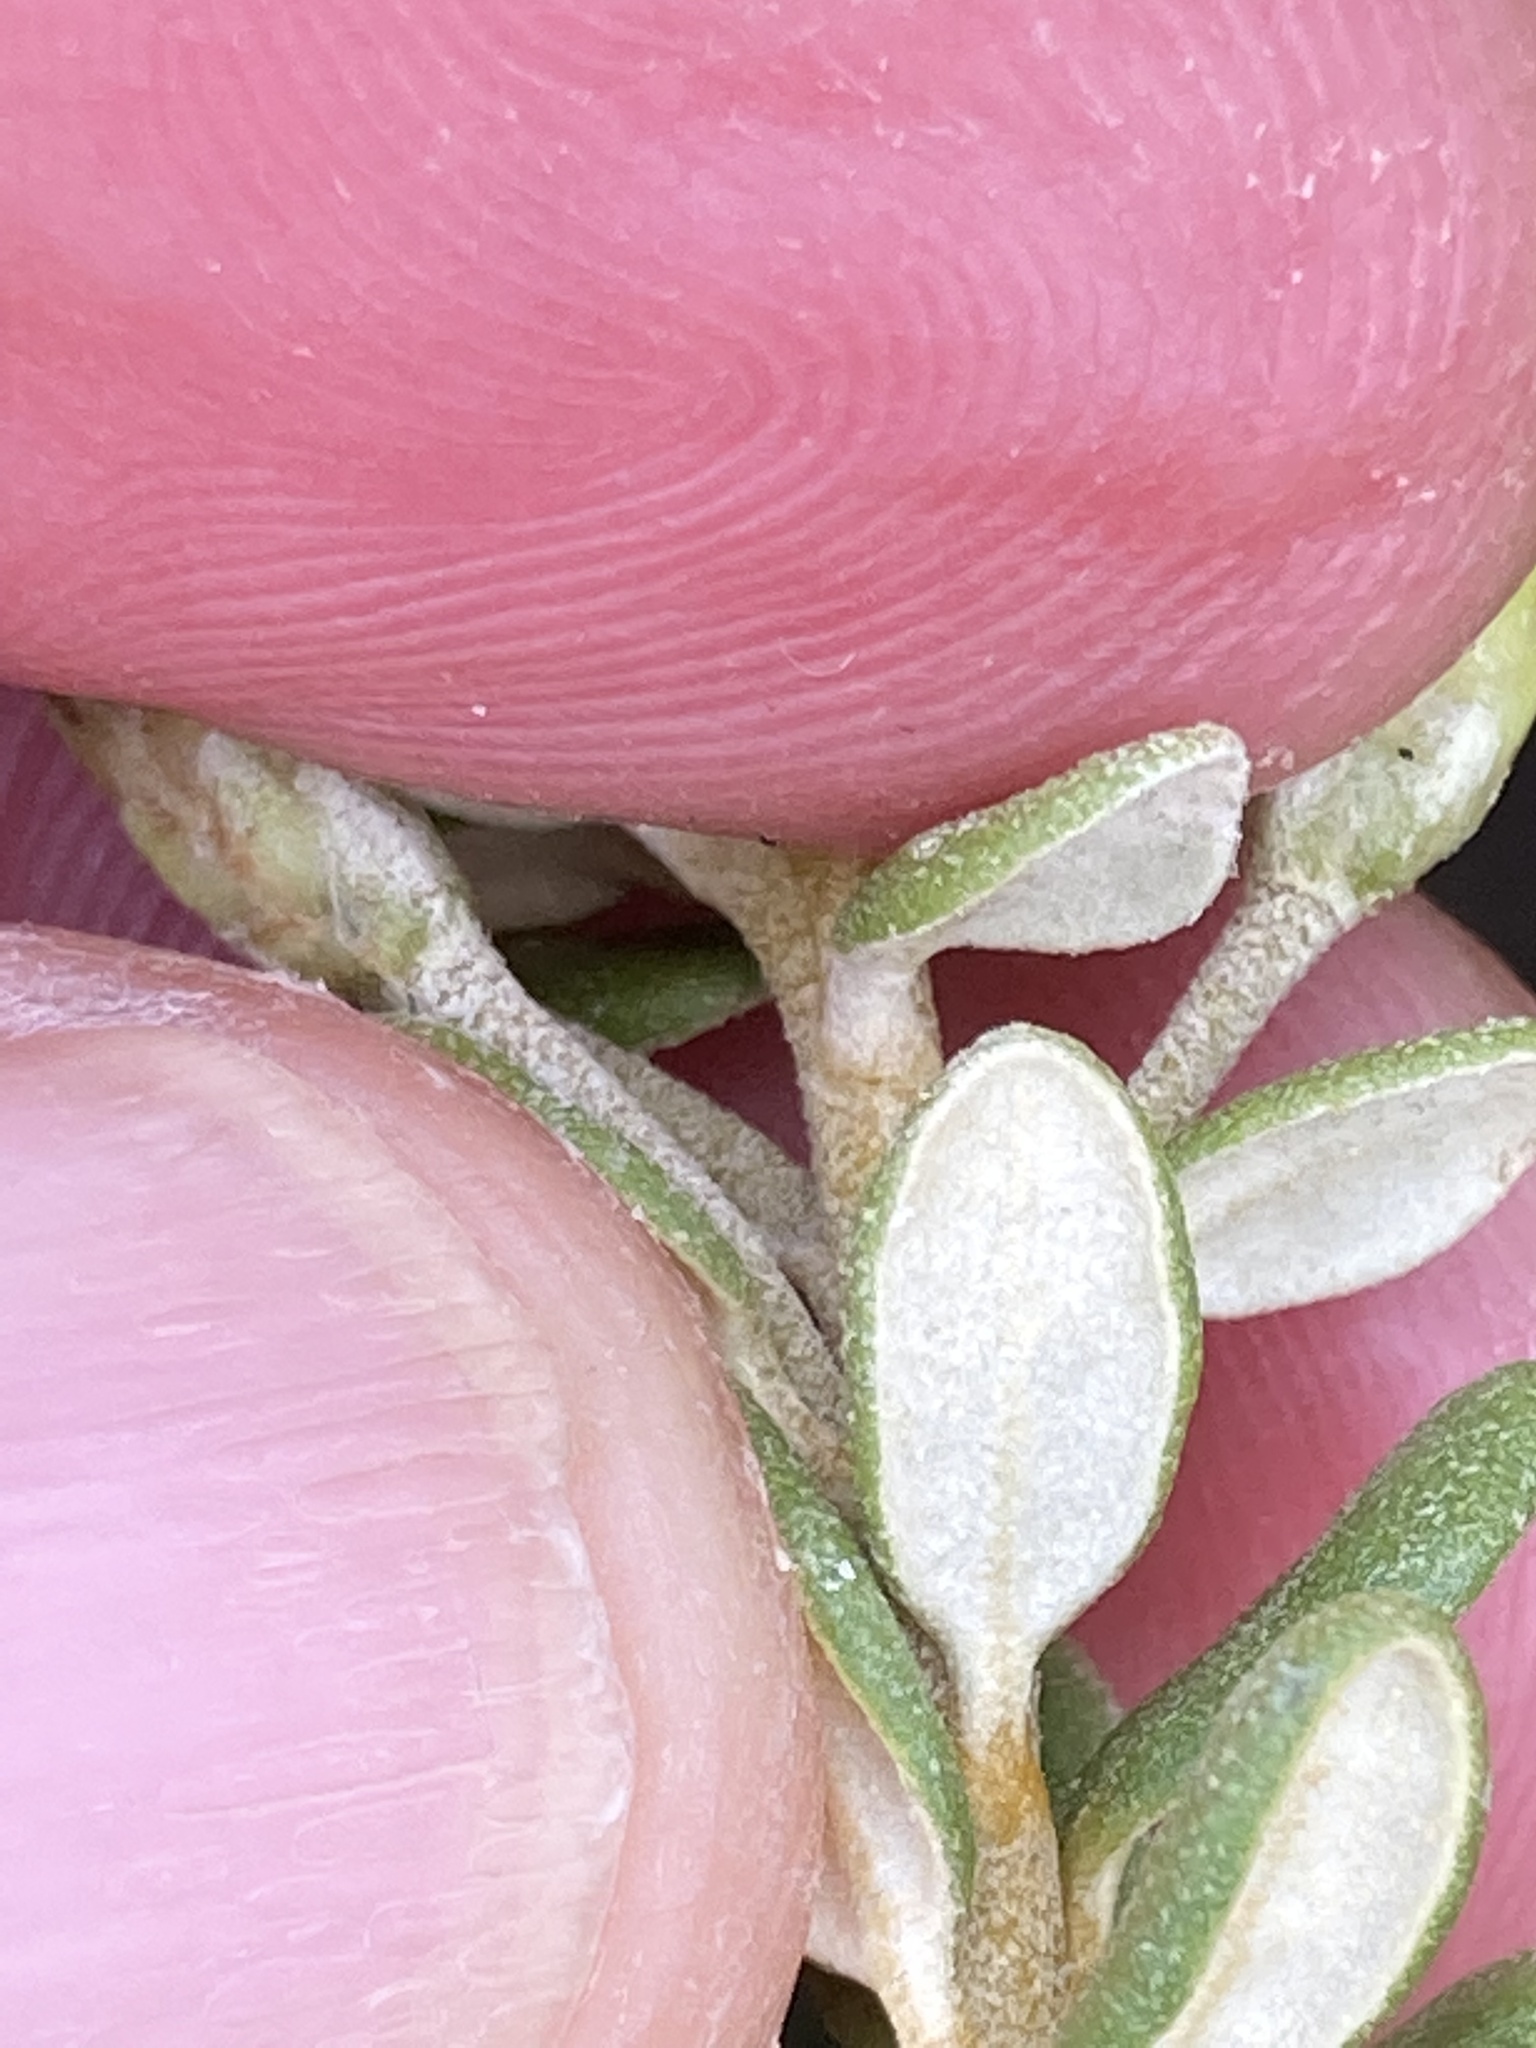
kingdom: Plantae
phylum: Tracheophyta
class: Magnoliopsida
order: Asterales
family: Asteraceae
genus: Olearia
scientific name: Olearia nummularifolia
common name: Sticky daisybush
